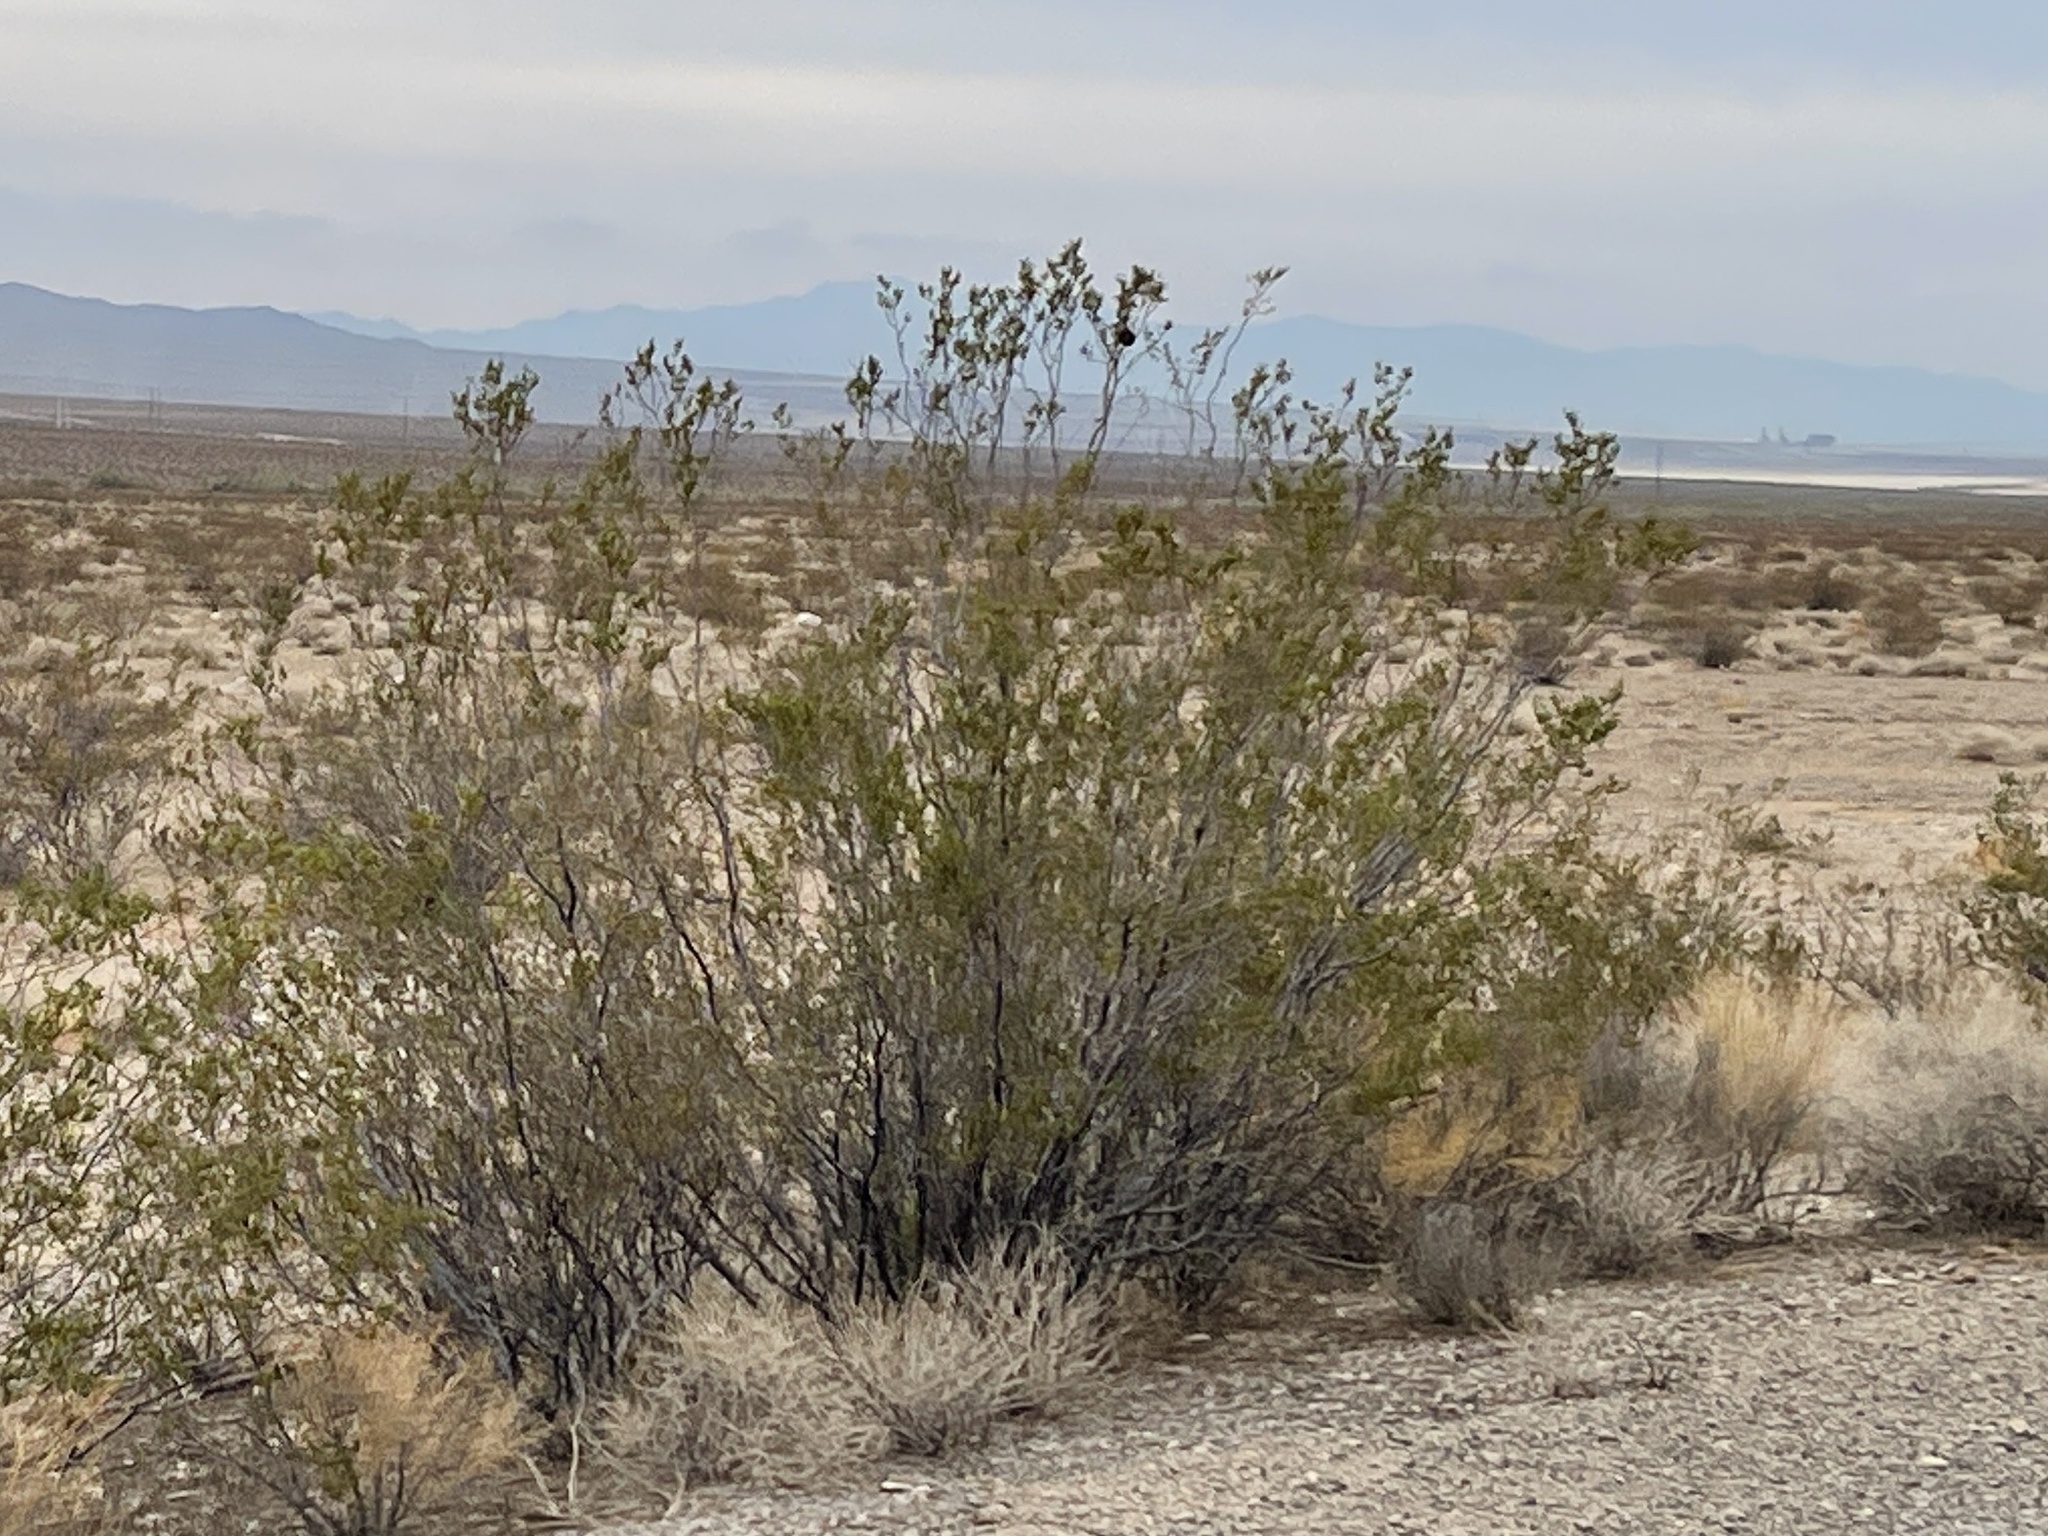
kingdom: Plantae
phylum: Tracheophyta
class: Magnoliopsida
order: Zygophyllales
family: Zygophyllaceae
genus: Larrea
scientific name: Larrea tridentata
